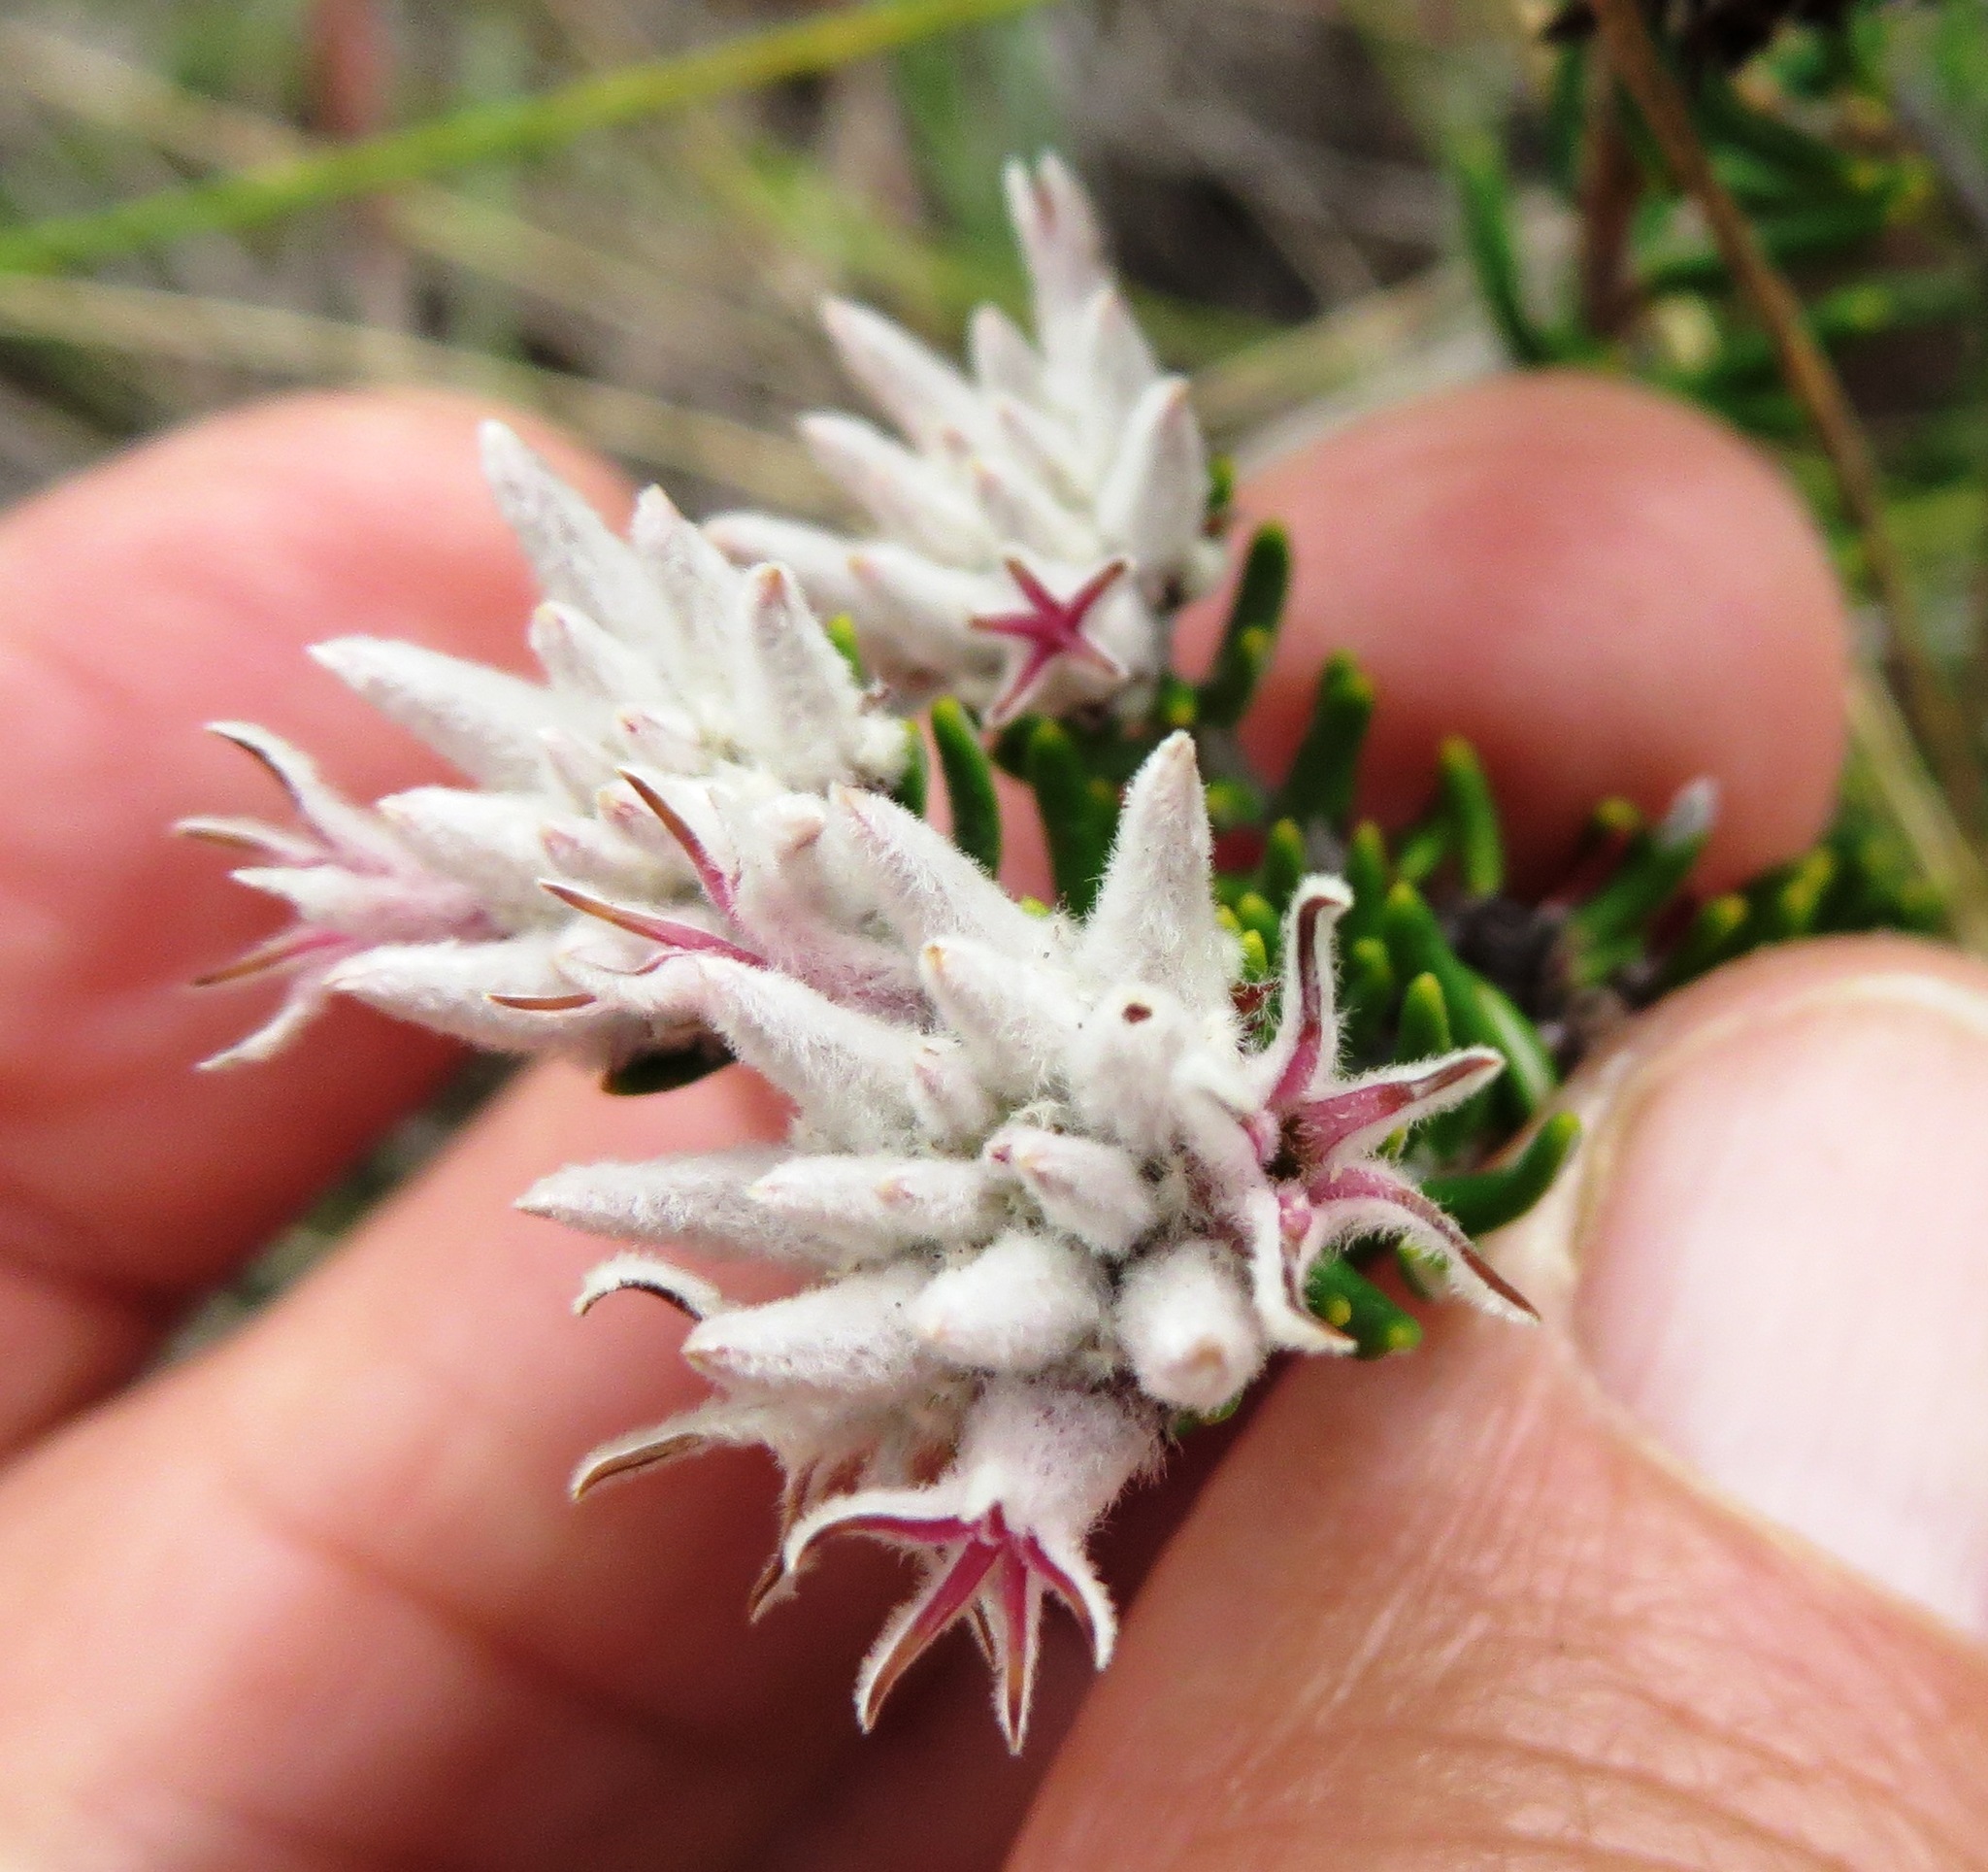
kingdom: Plantae
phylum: Tracheophyta
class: Magnoliopsida
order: Rosales
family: Rhamnaceae
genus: Trichocephalus
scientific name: Trichocephalus stipularis
